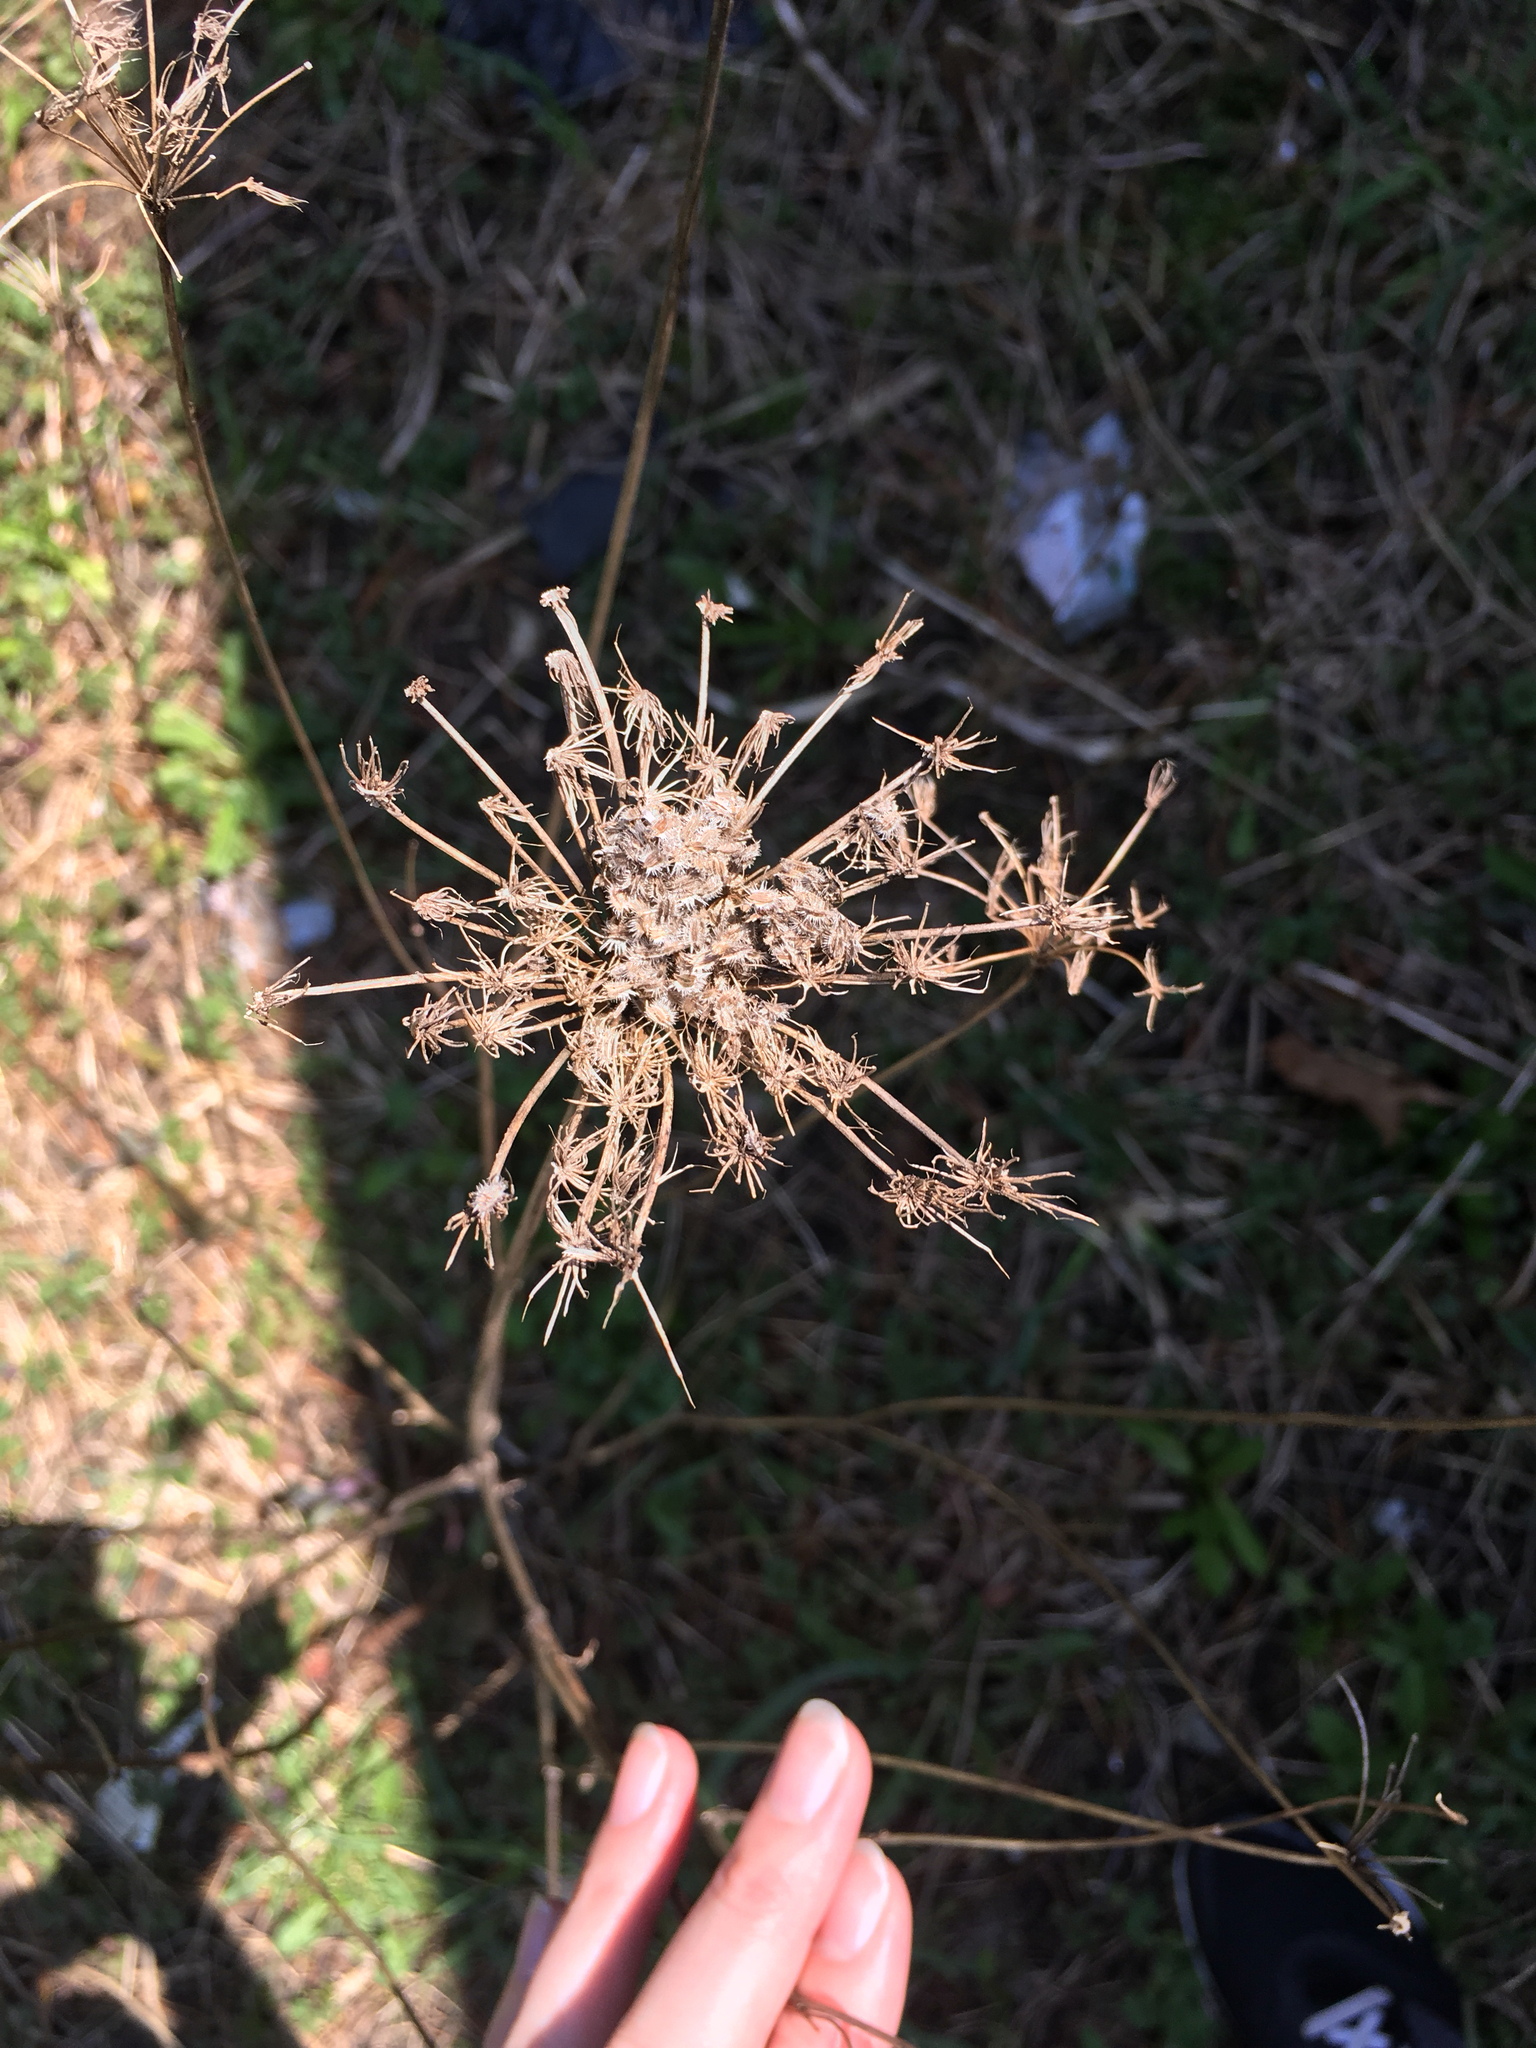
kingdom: Plantae
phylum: Tracheophyta
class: Magnoliopsida
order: Apiales
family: Apiaceae
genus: Daucus
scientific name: Daucus carota
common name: Wild carrot
